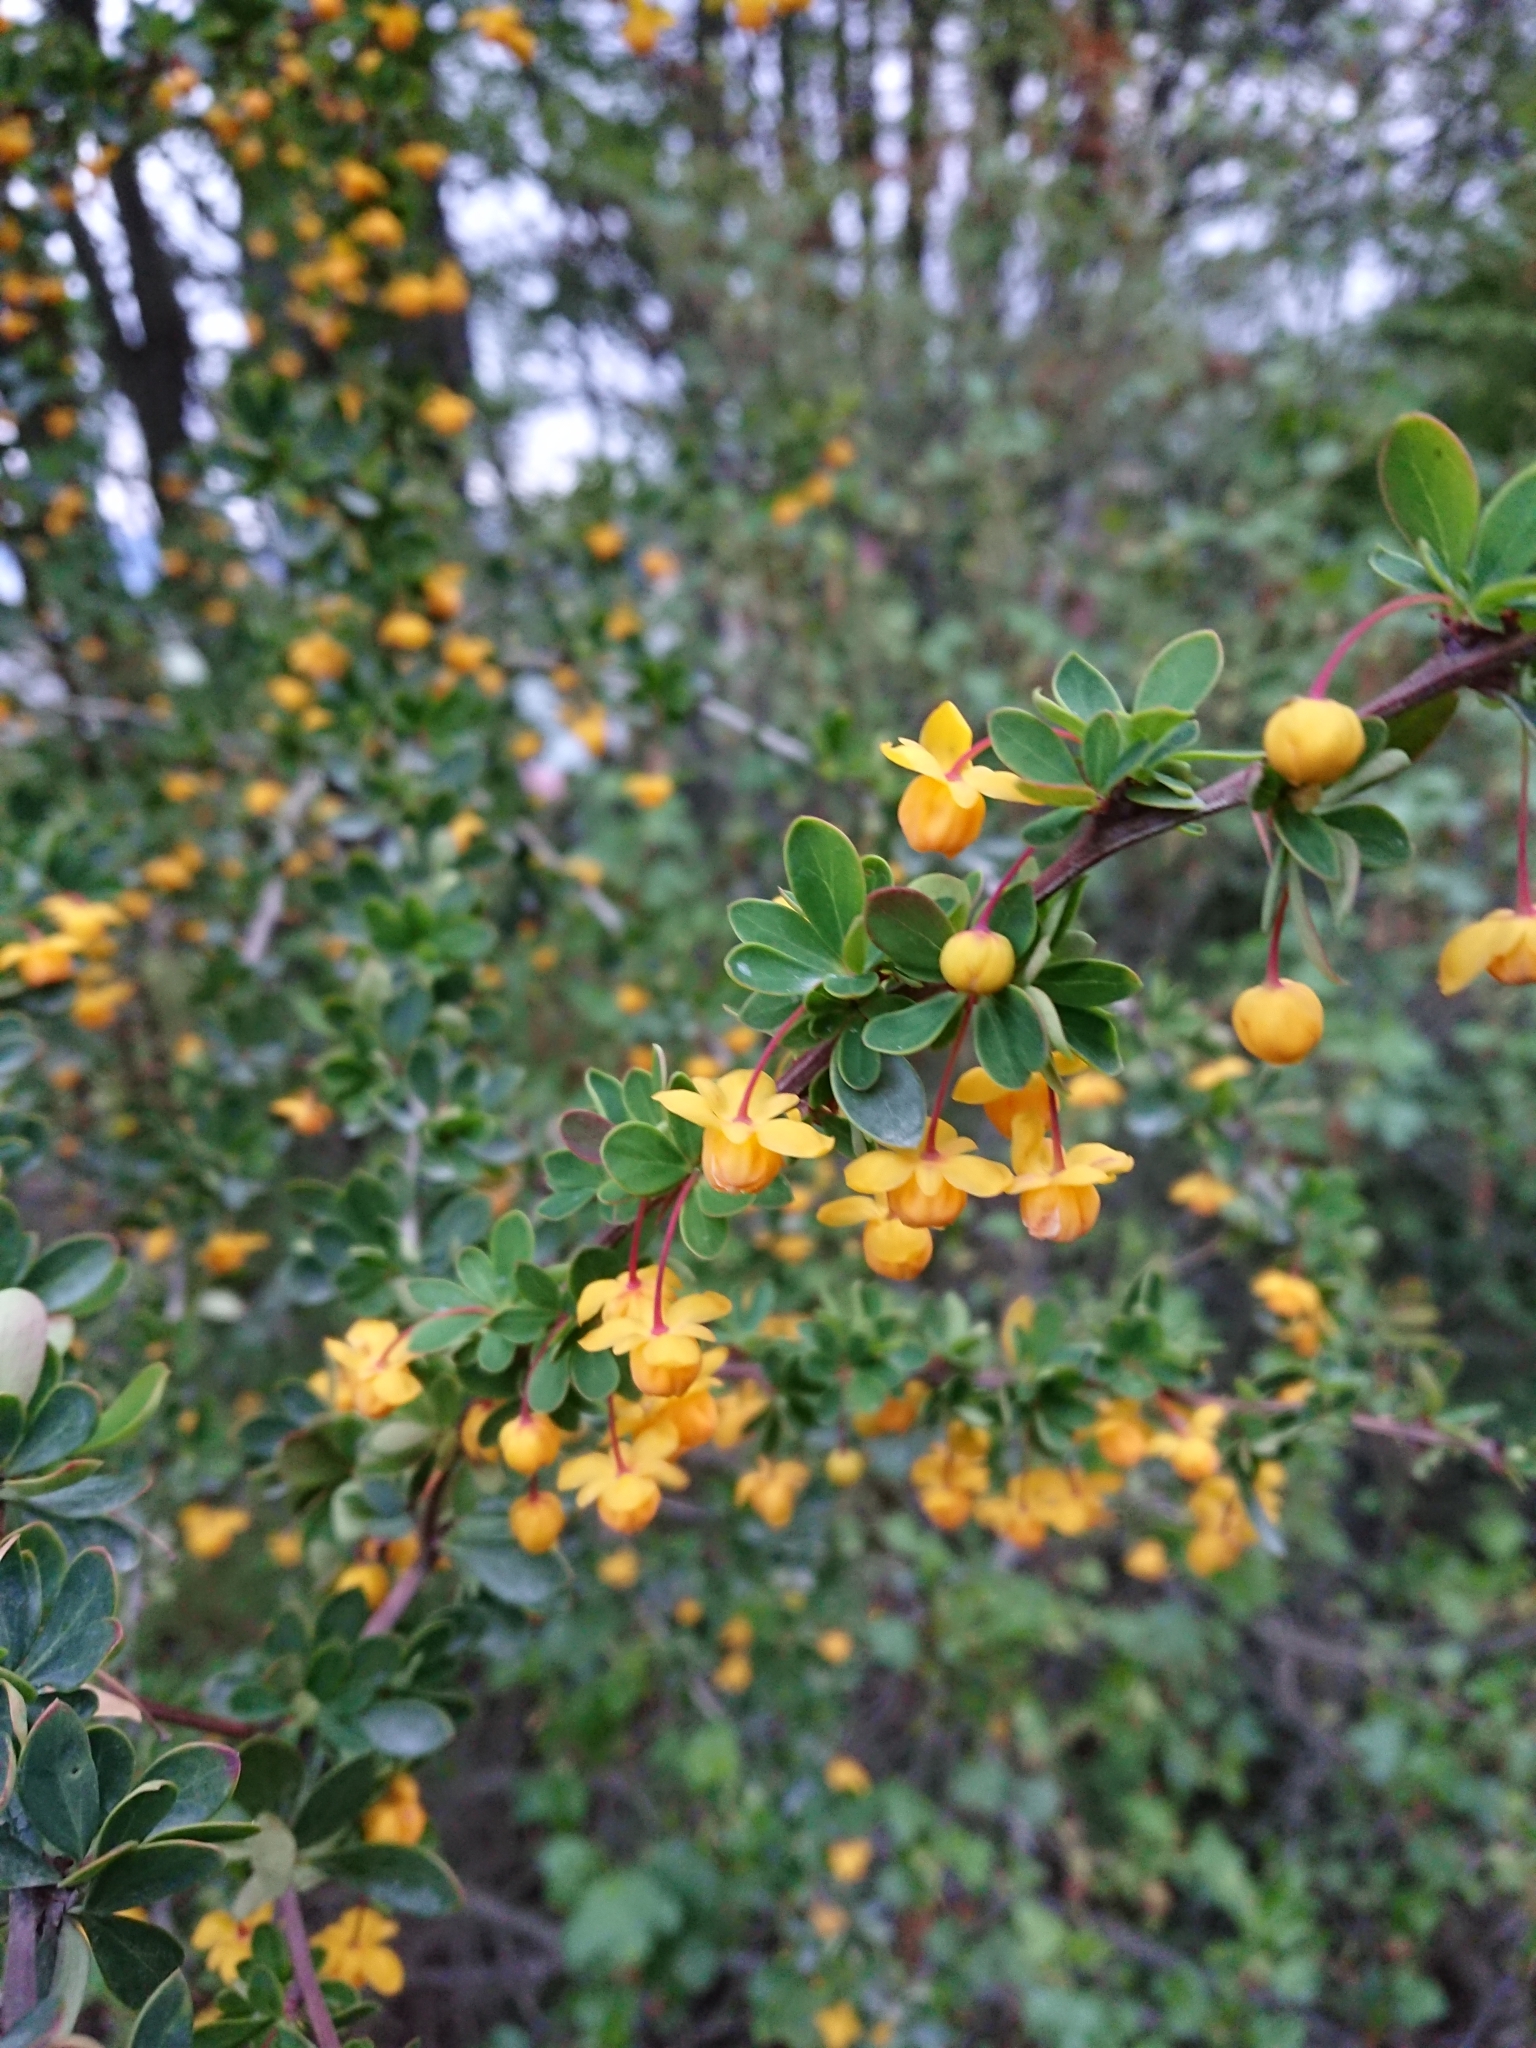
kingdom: Plantae
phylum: Tracheophyta
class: Magnoliopsida
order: Ranunculales
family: Berberidaceae
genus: Berberis
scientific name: Berberis microphylla
